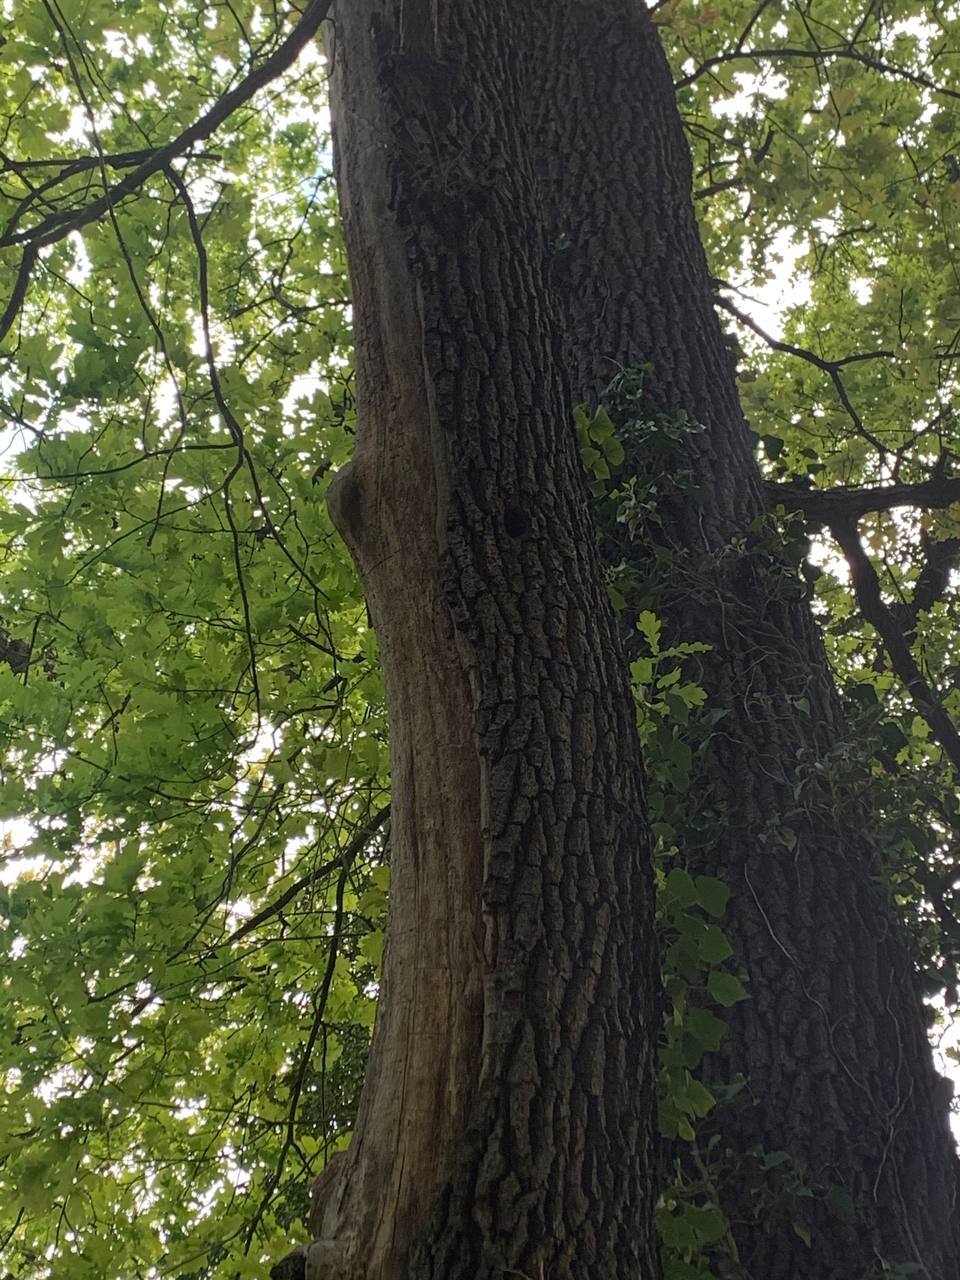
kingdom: Animalia
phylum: Chordata
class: Aves
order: Piciformes
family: Picidae
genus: Dendrocopos
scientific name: Dendrocopos major
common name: Great spotted woodpecker
